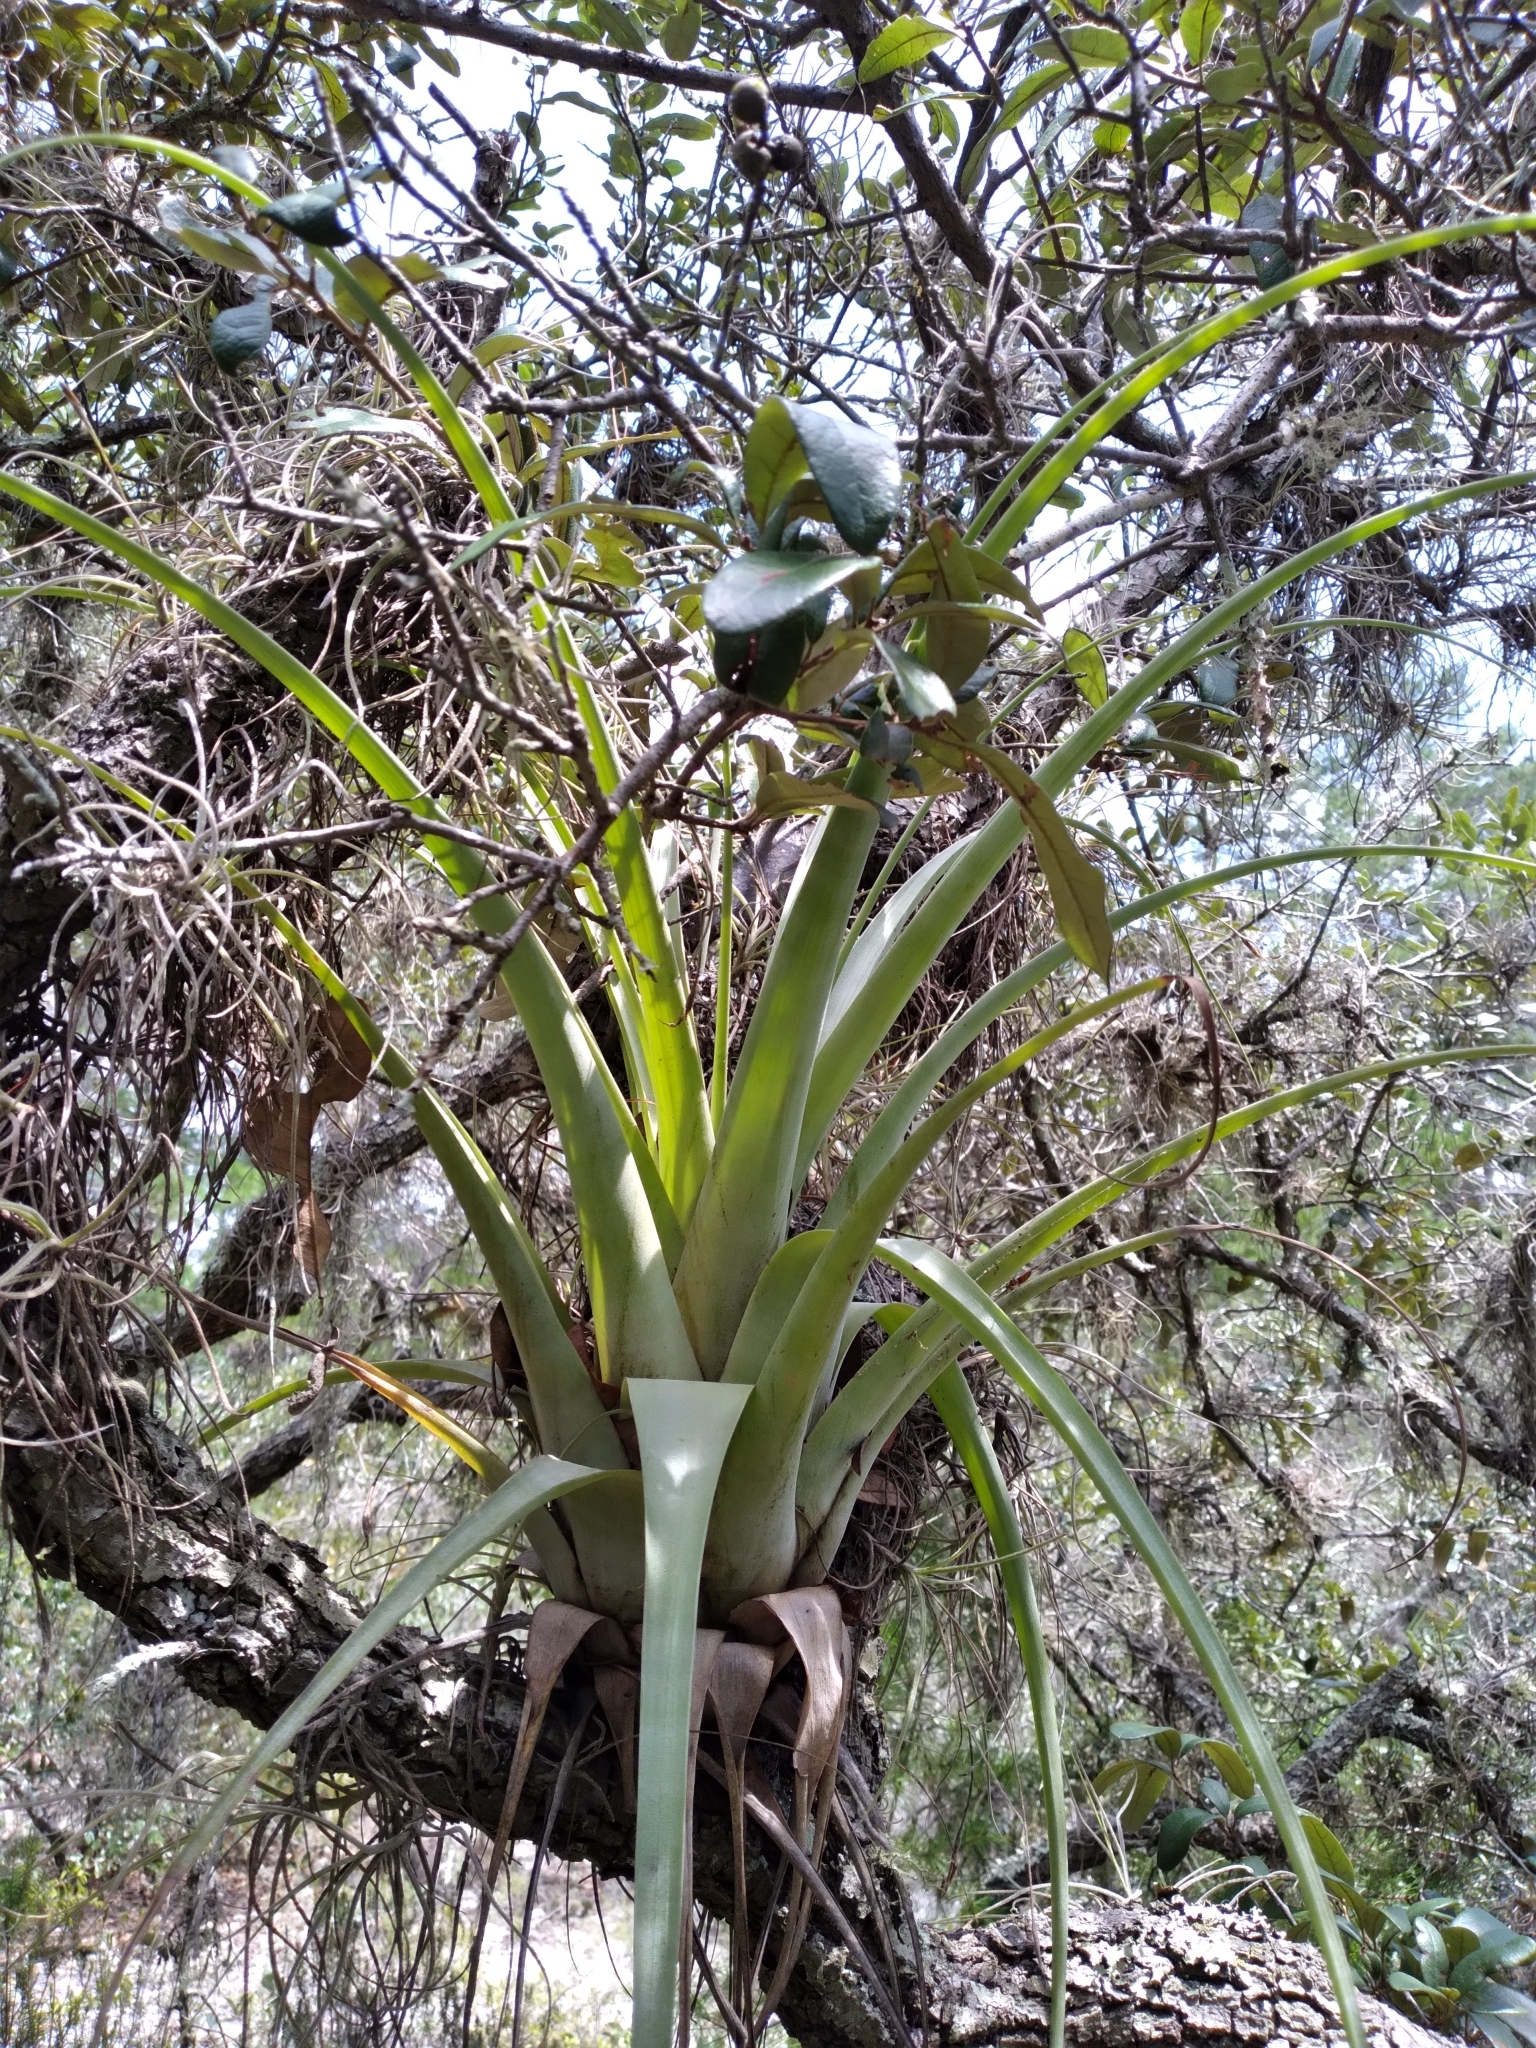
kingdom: Plantae
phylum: Tracheophyta
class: Liliopsida
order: Poales
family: Bromeliaceae
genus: Tillandsia
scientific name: Tillandsia utriculata
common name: Wild pine
